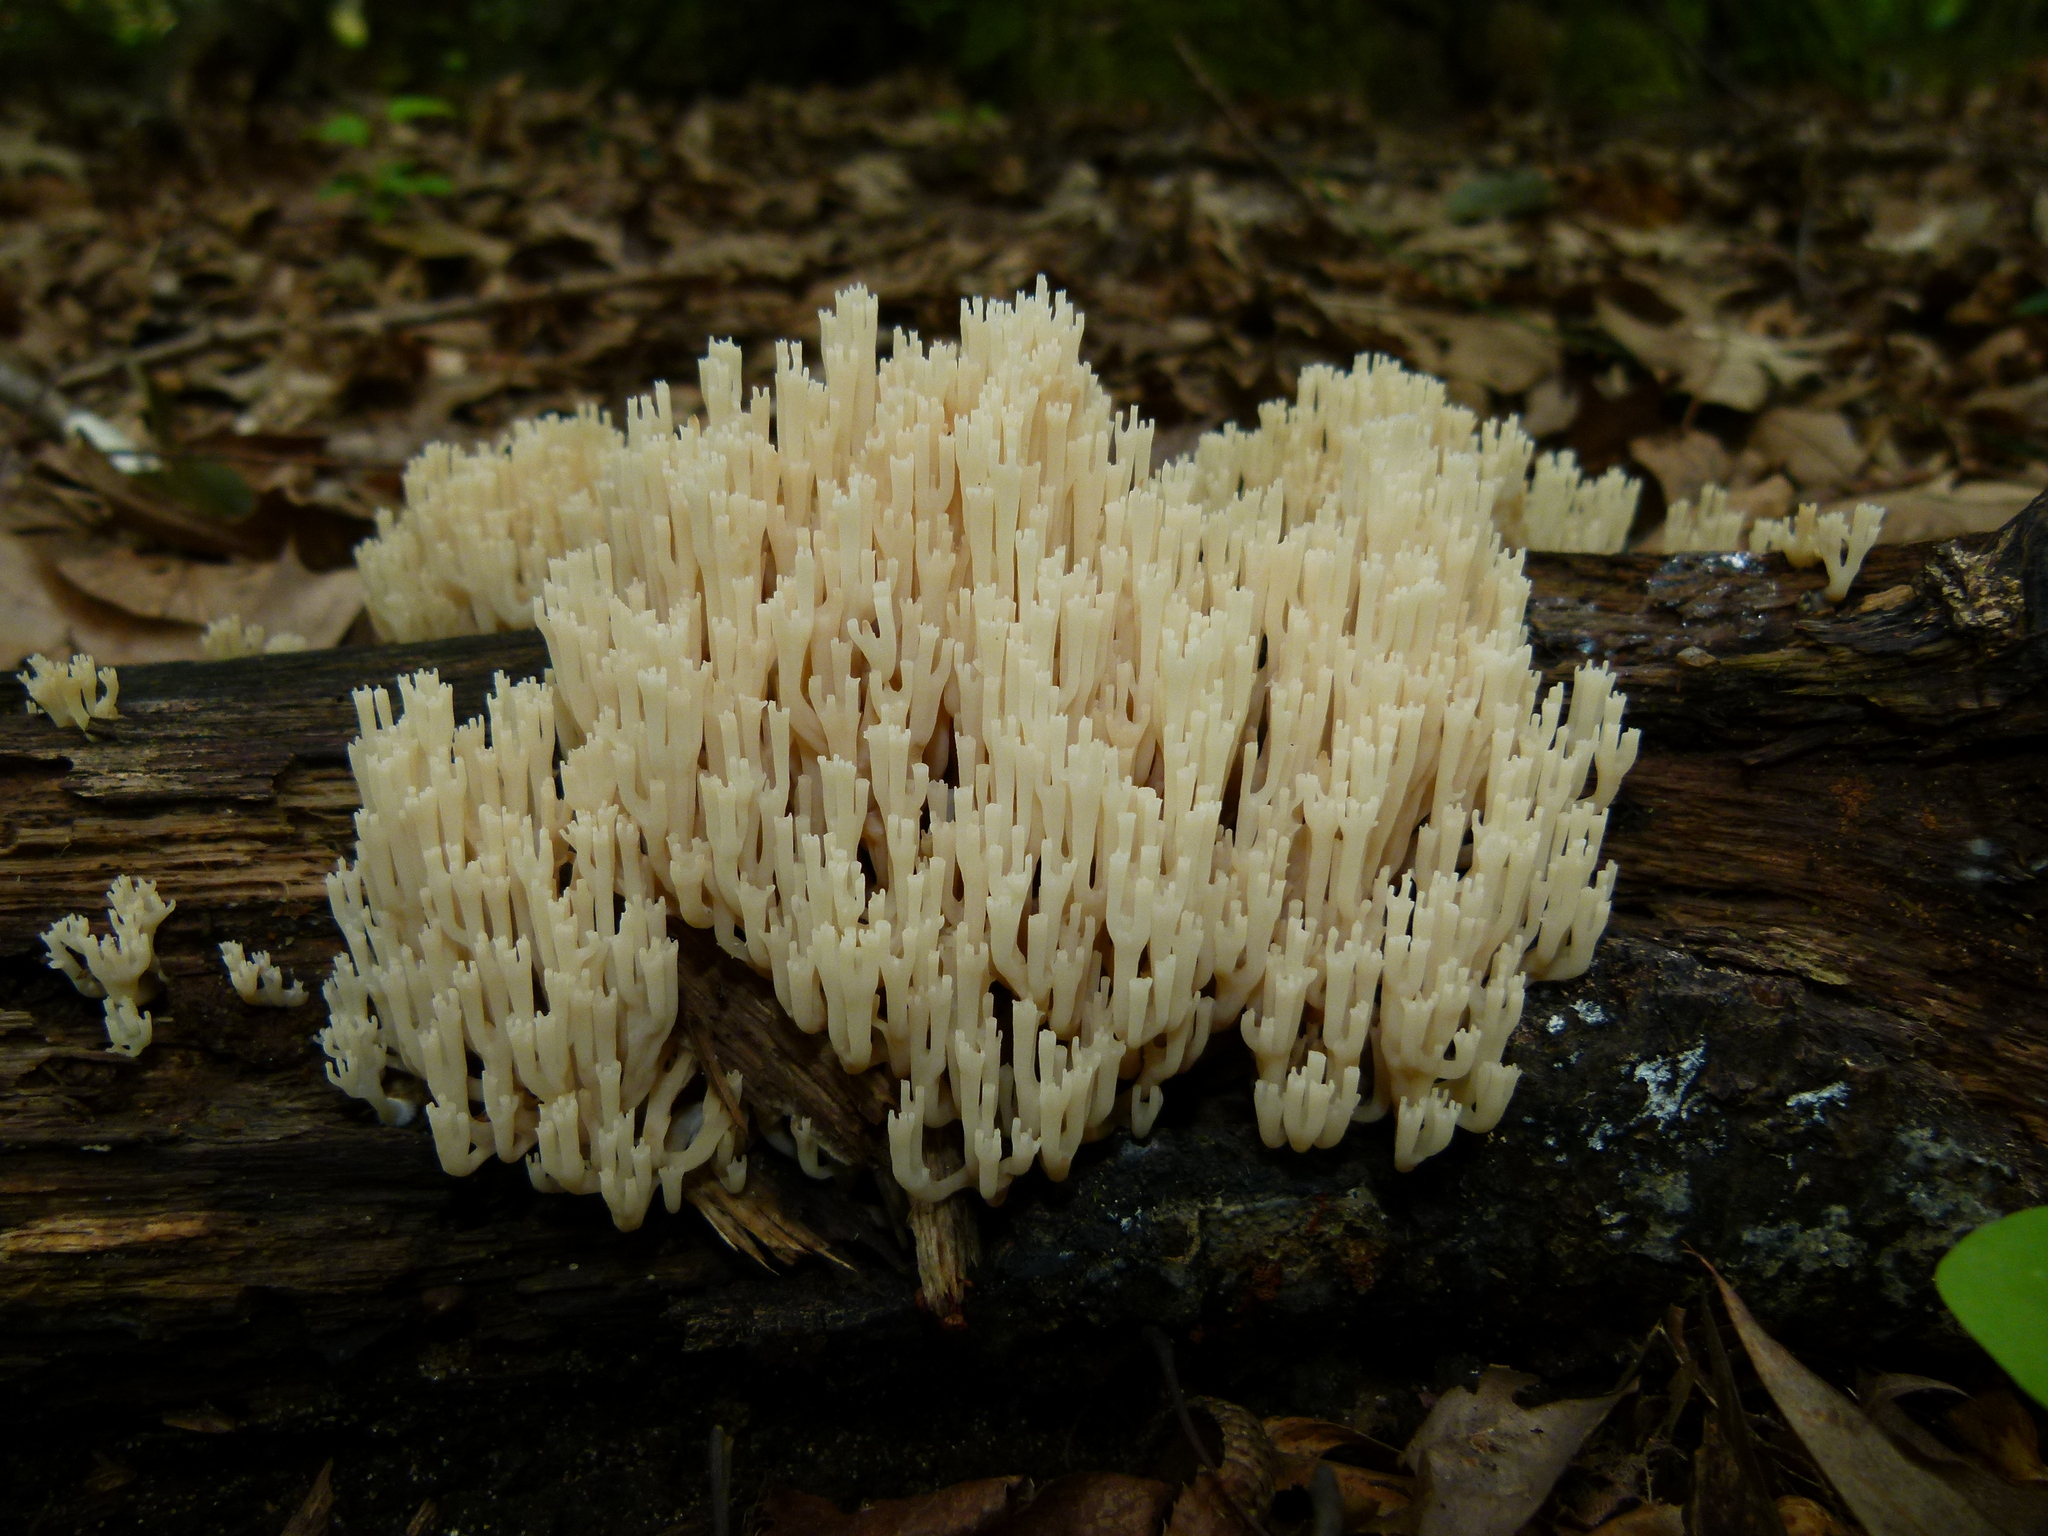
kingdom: Fungi
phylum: Basidiomycota
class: Agaricomycetes
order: Russulales
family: Auriscalpiaceae
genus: Artomyces
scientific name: Artomyces pyxidatus
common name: Crown-tipped coral fungus
